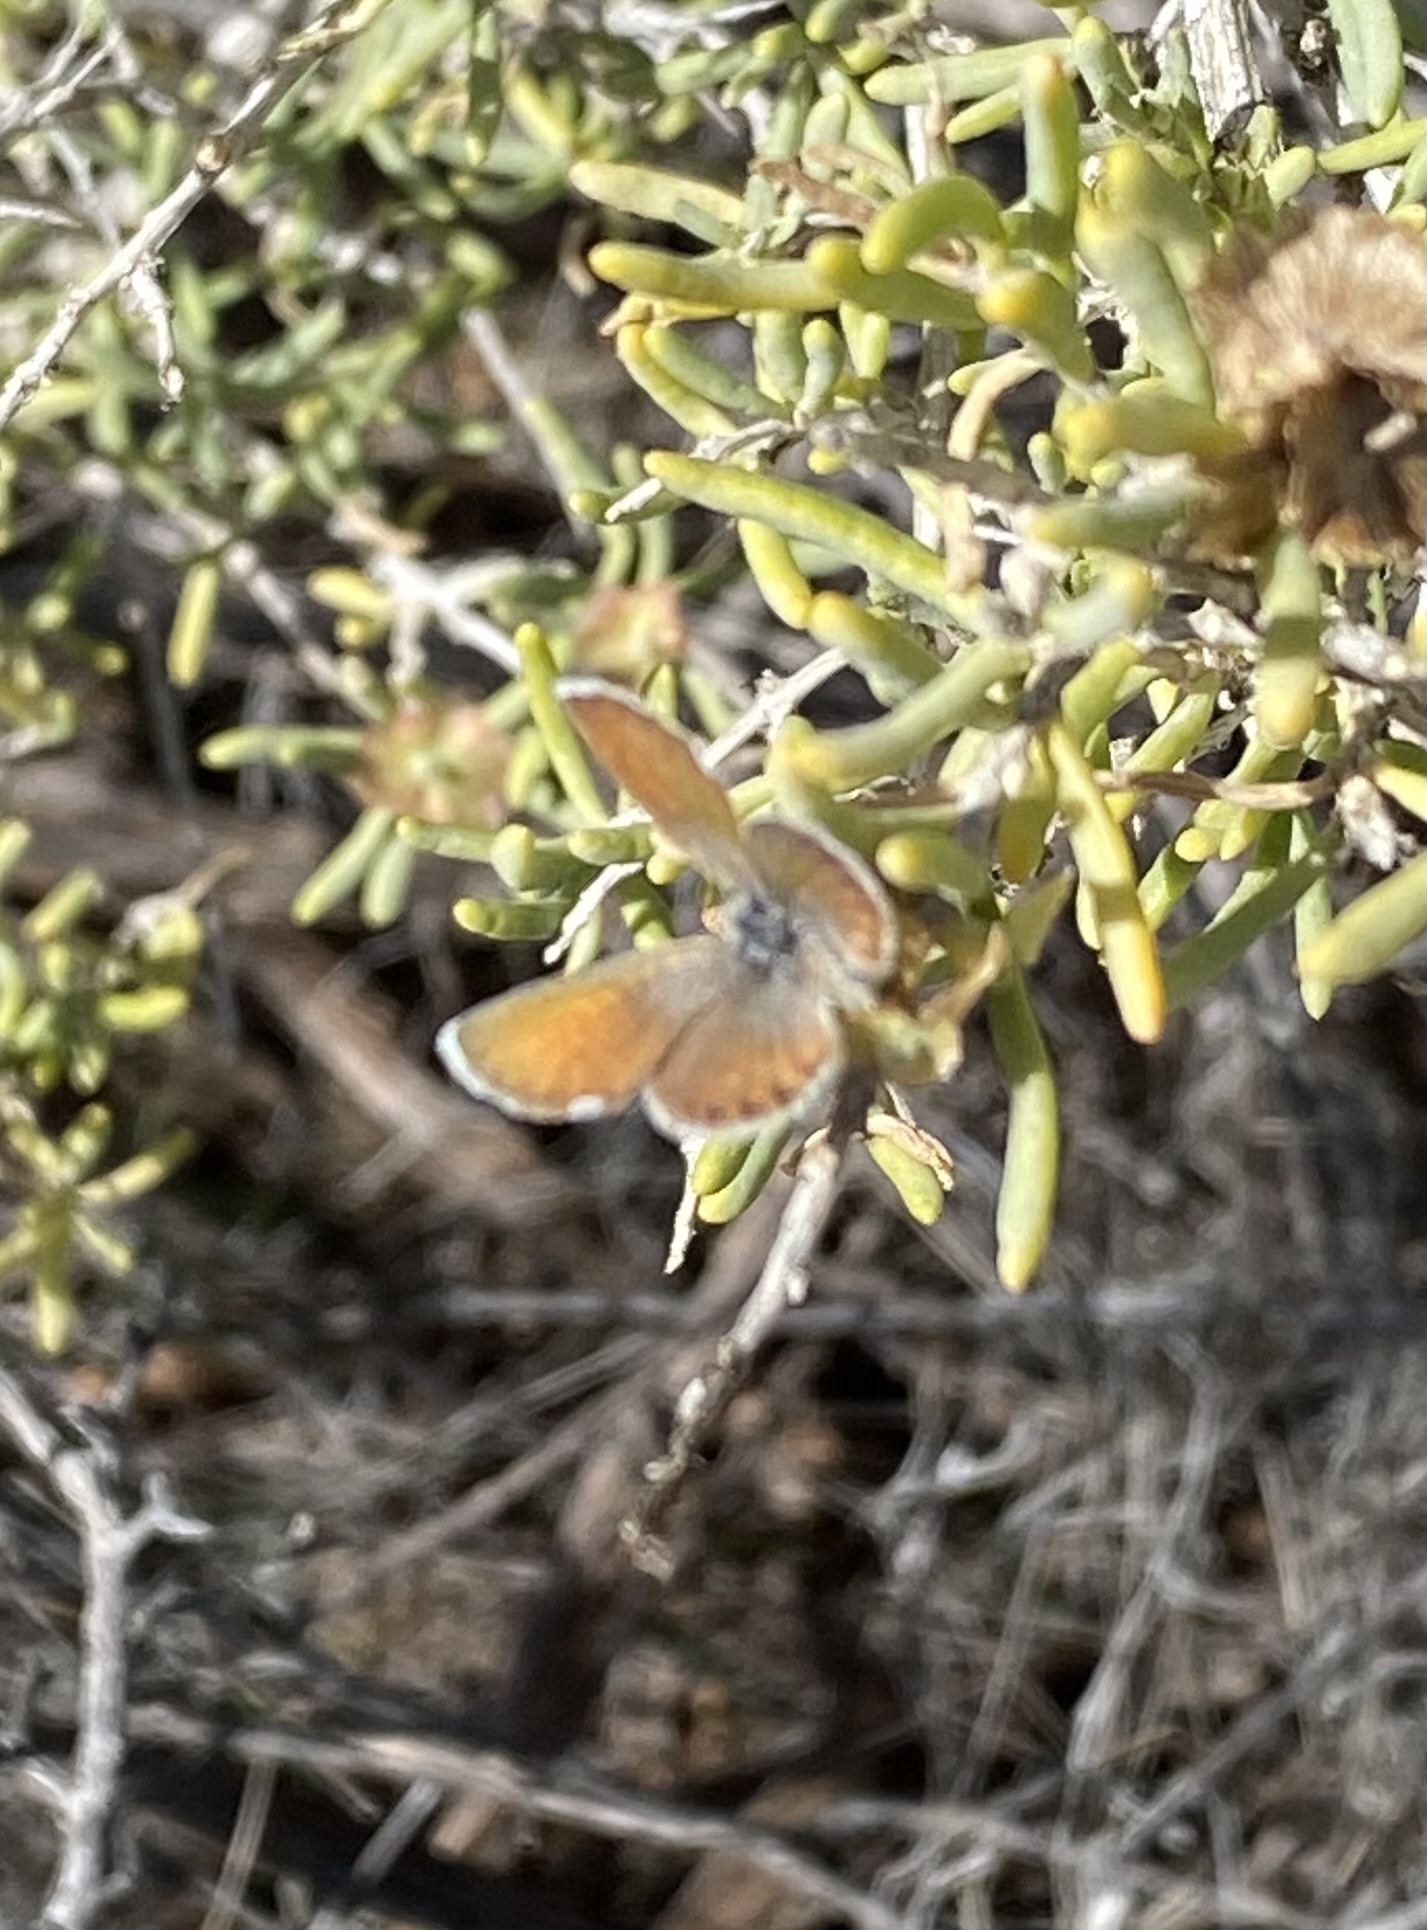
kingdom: Animalia
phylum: Arthropoda
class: Insecta
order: Lepidoptera
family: Lycaenidae
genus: Brephidium
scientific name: Brephidium exilis
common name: Pygmy blue
